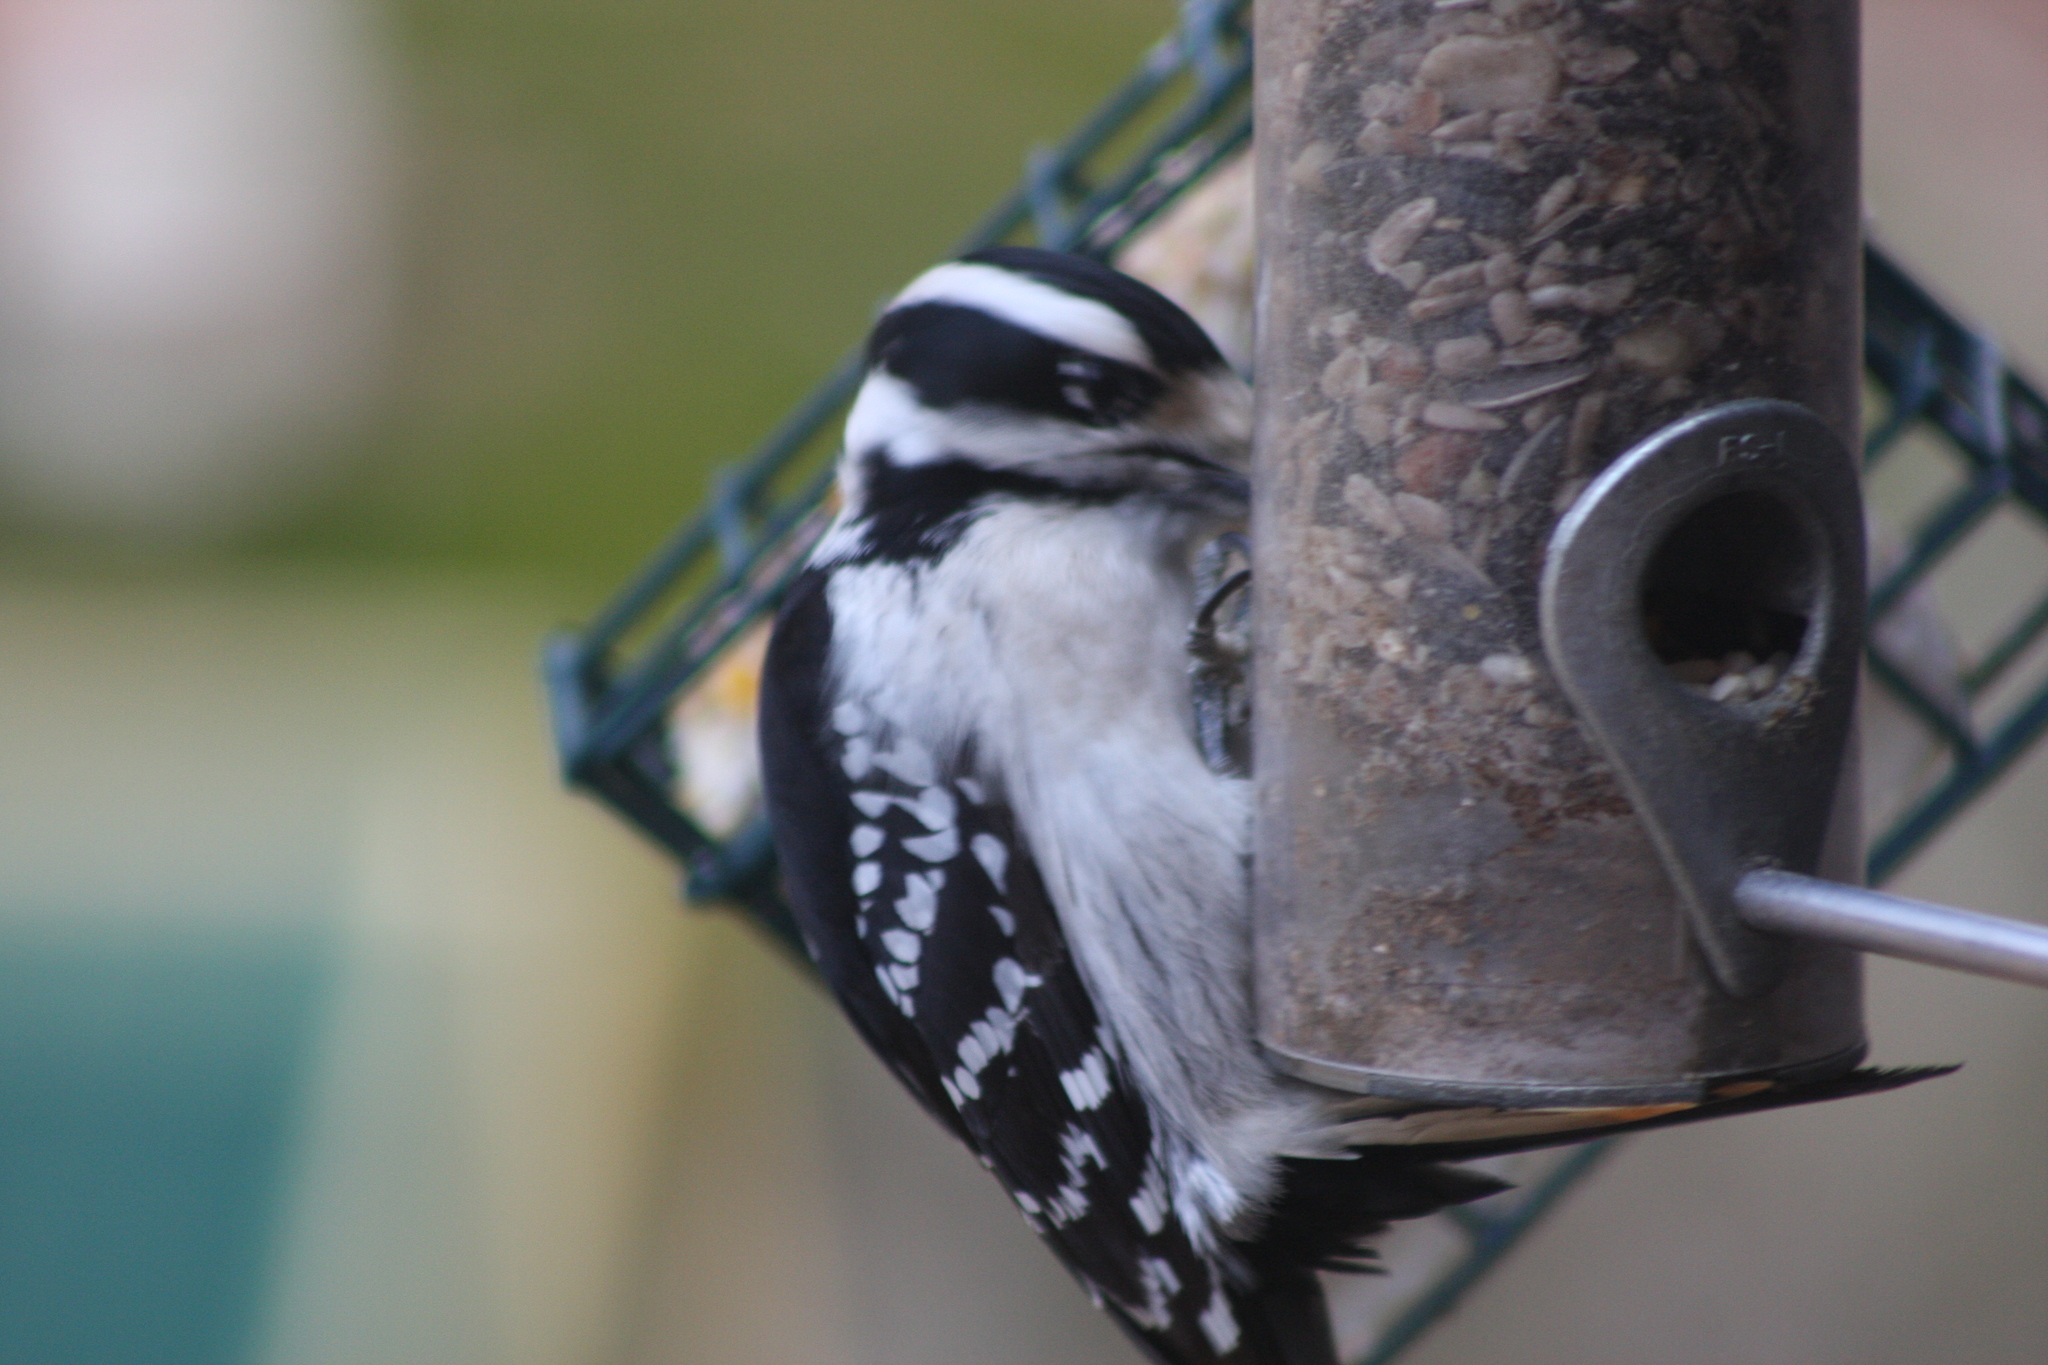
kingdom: Animalia
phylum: Chordata
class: Aves
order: Piciformes
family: Picidae
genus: Dryobates
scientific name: Dryobates pubescens
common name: Downy woodpecker
